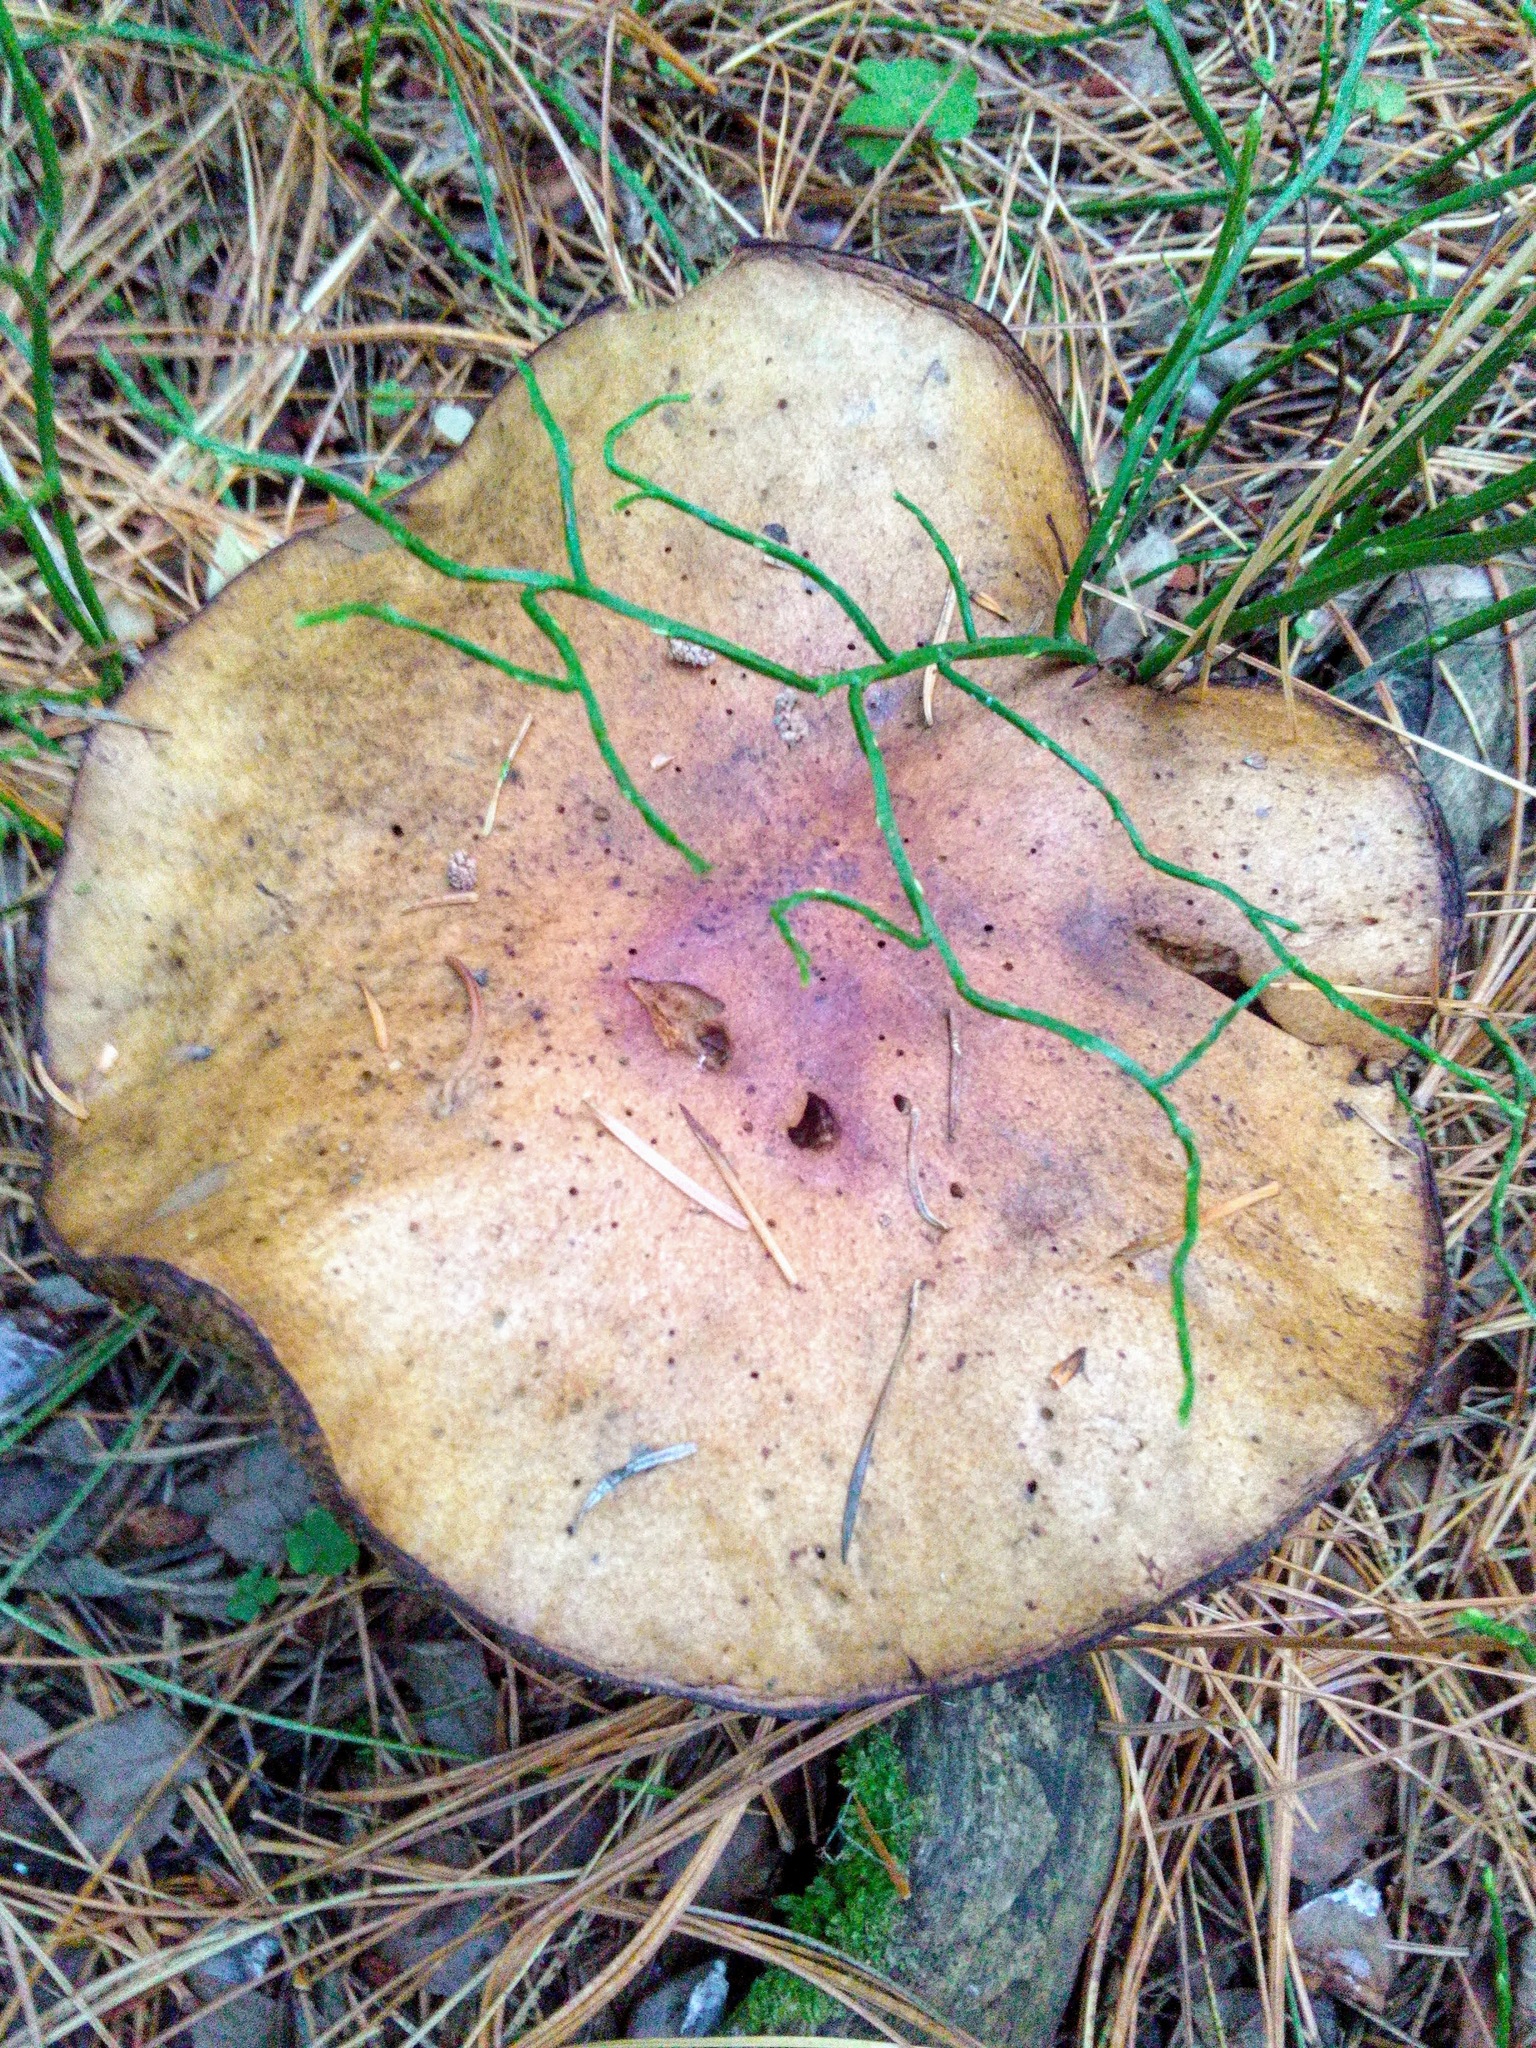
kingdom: Fungi
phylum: Basidiomycota
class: Agaricomycetes
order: Boletales
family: Suillaceae
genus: Suillus
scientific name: Suillus placidus
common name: Slippery white bolete
